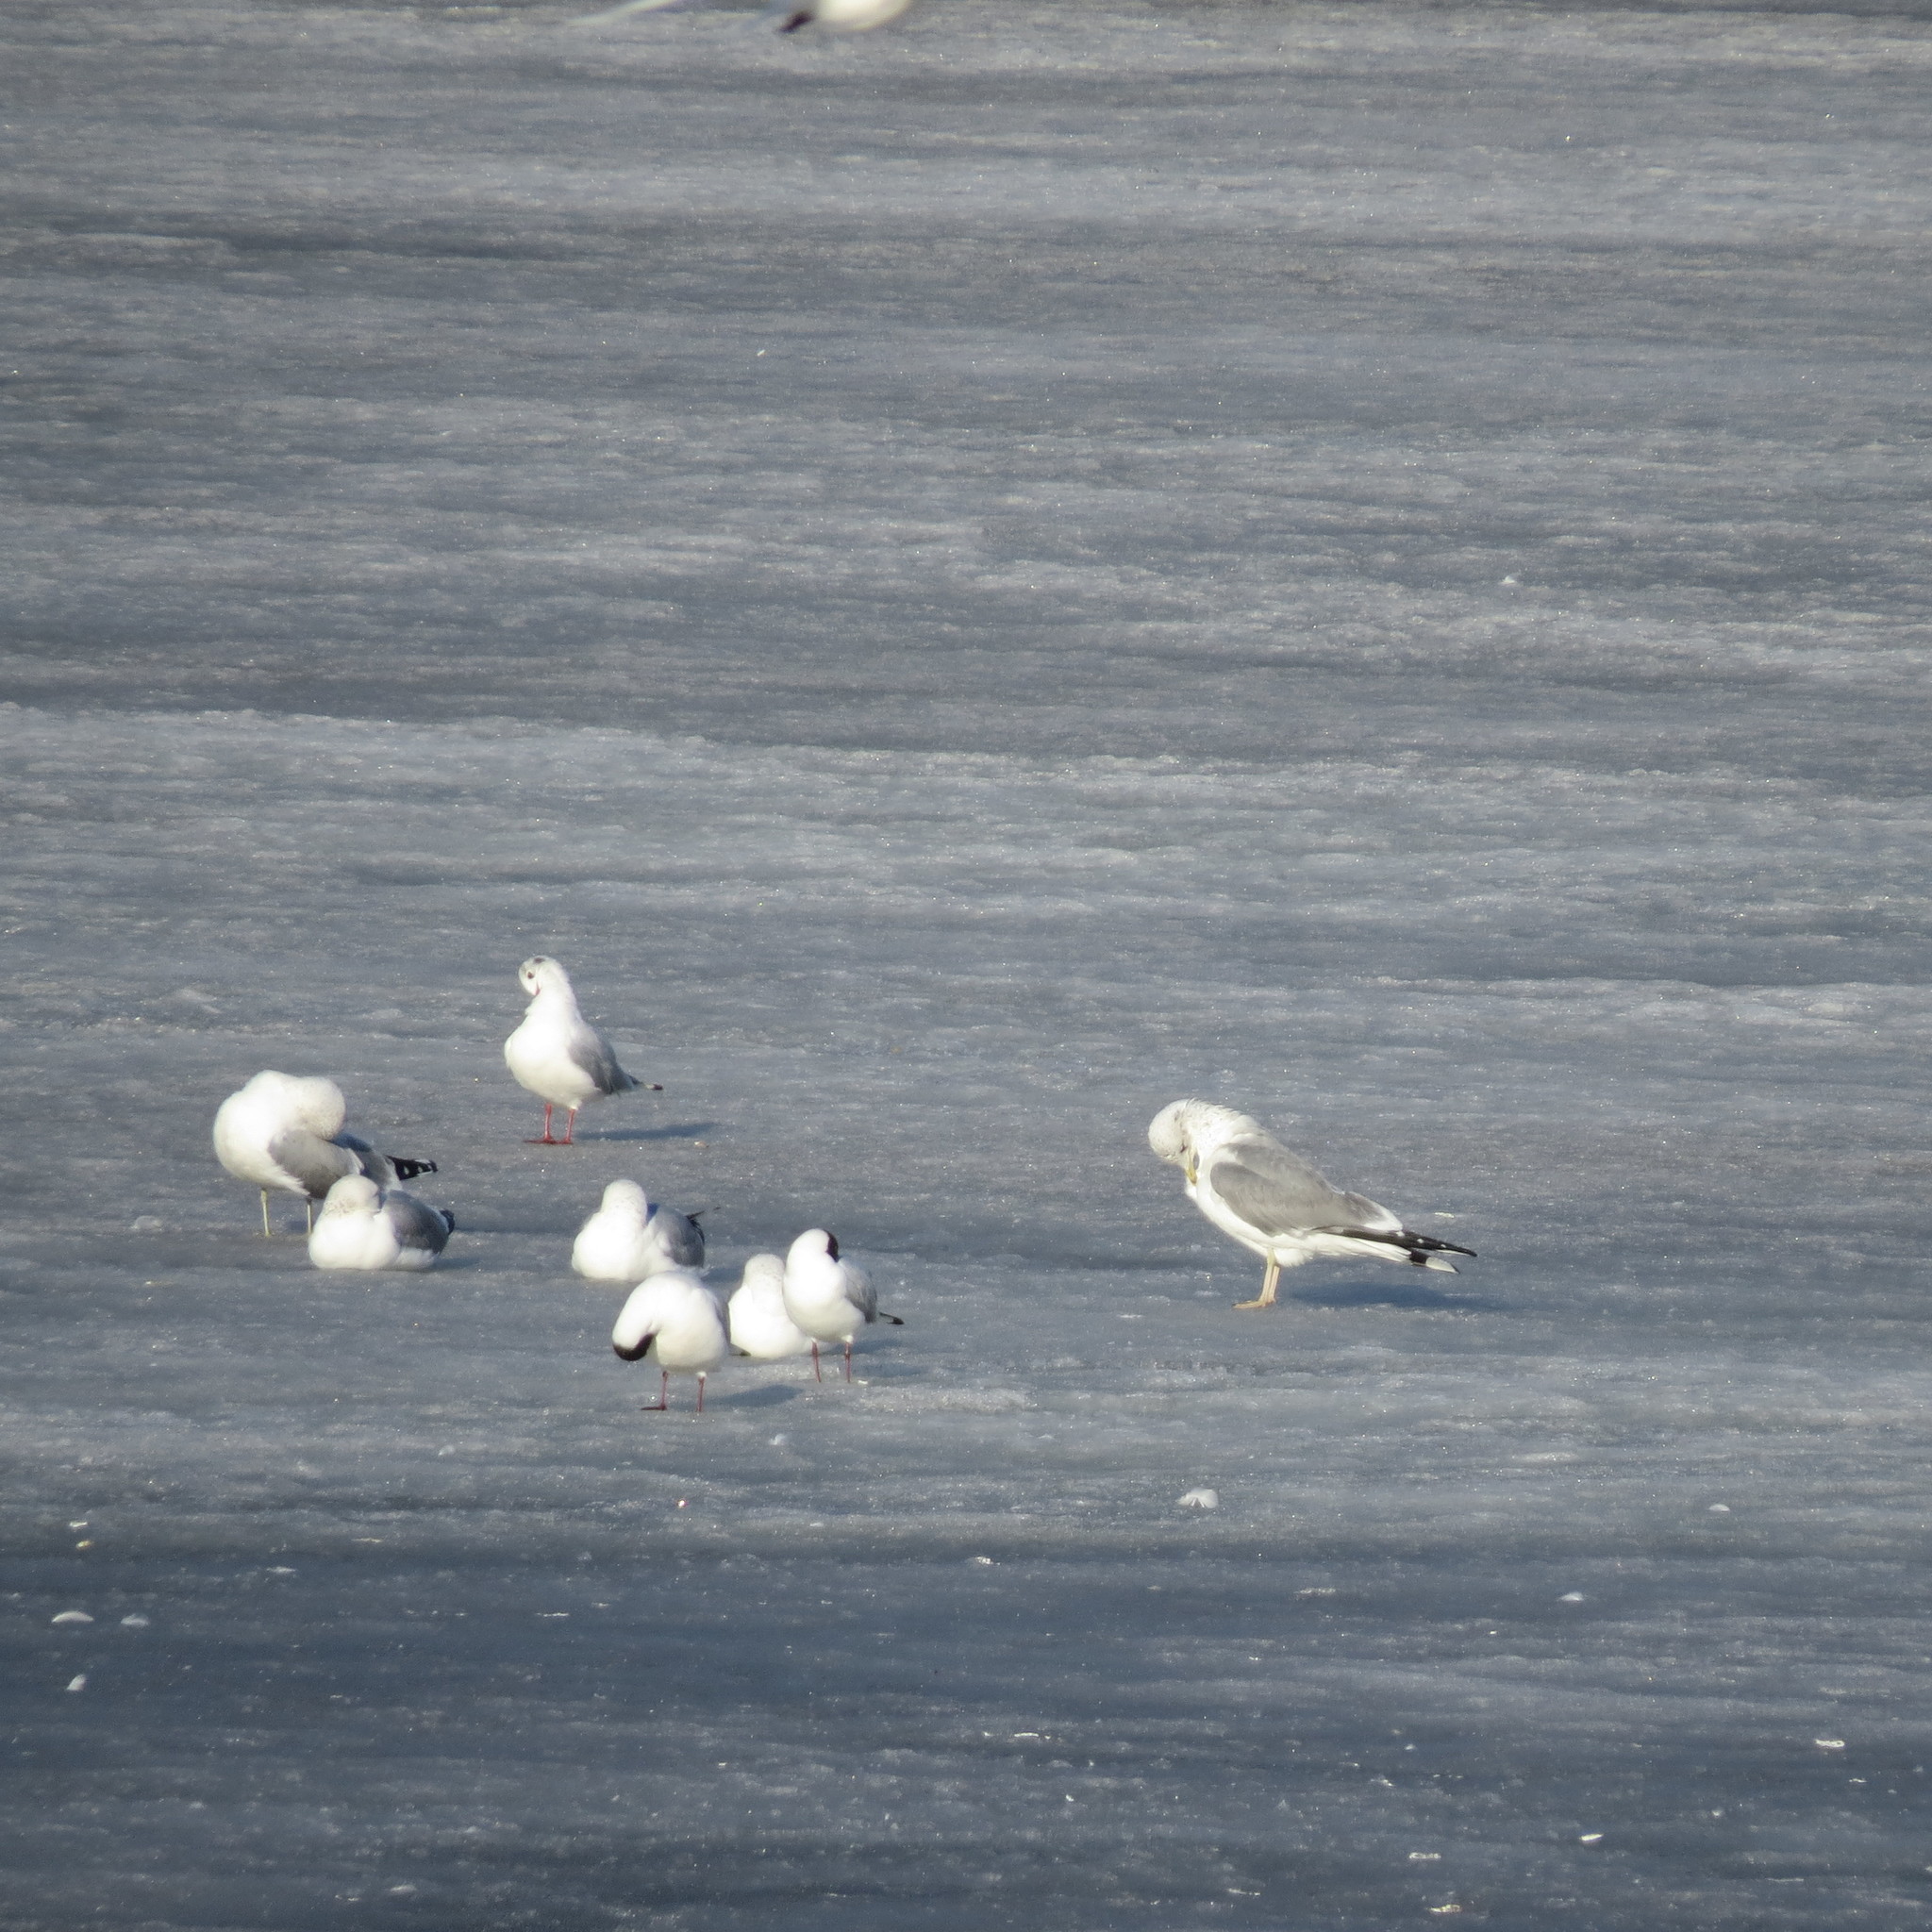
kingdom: Animalia
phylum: Chordata
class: Aves
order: Charadriiformes
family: Laridae
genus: Larus
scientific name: Larus canus
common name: Mew gull
